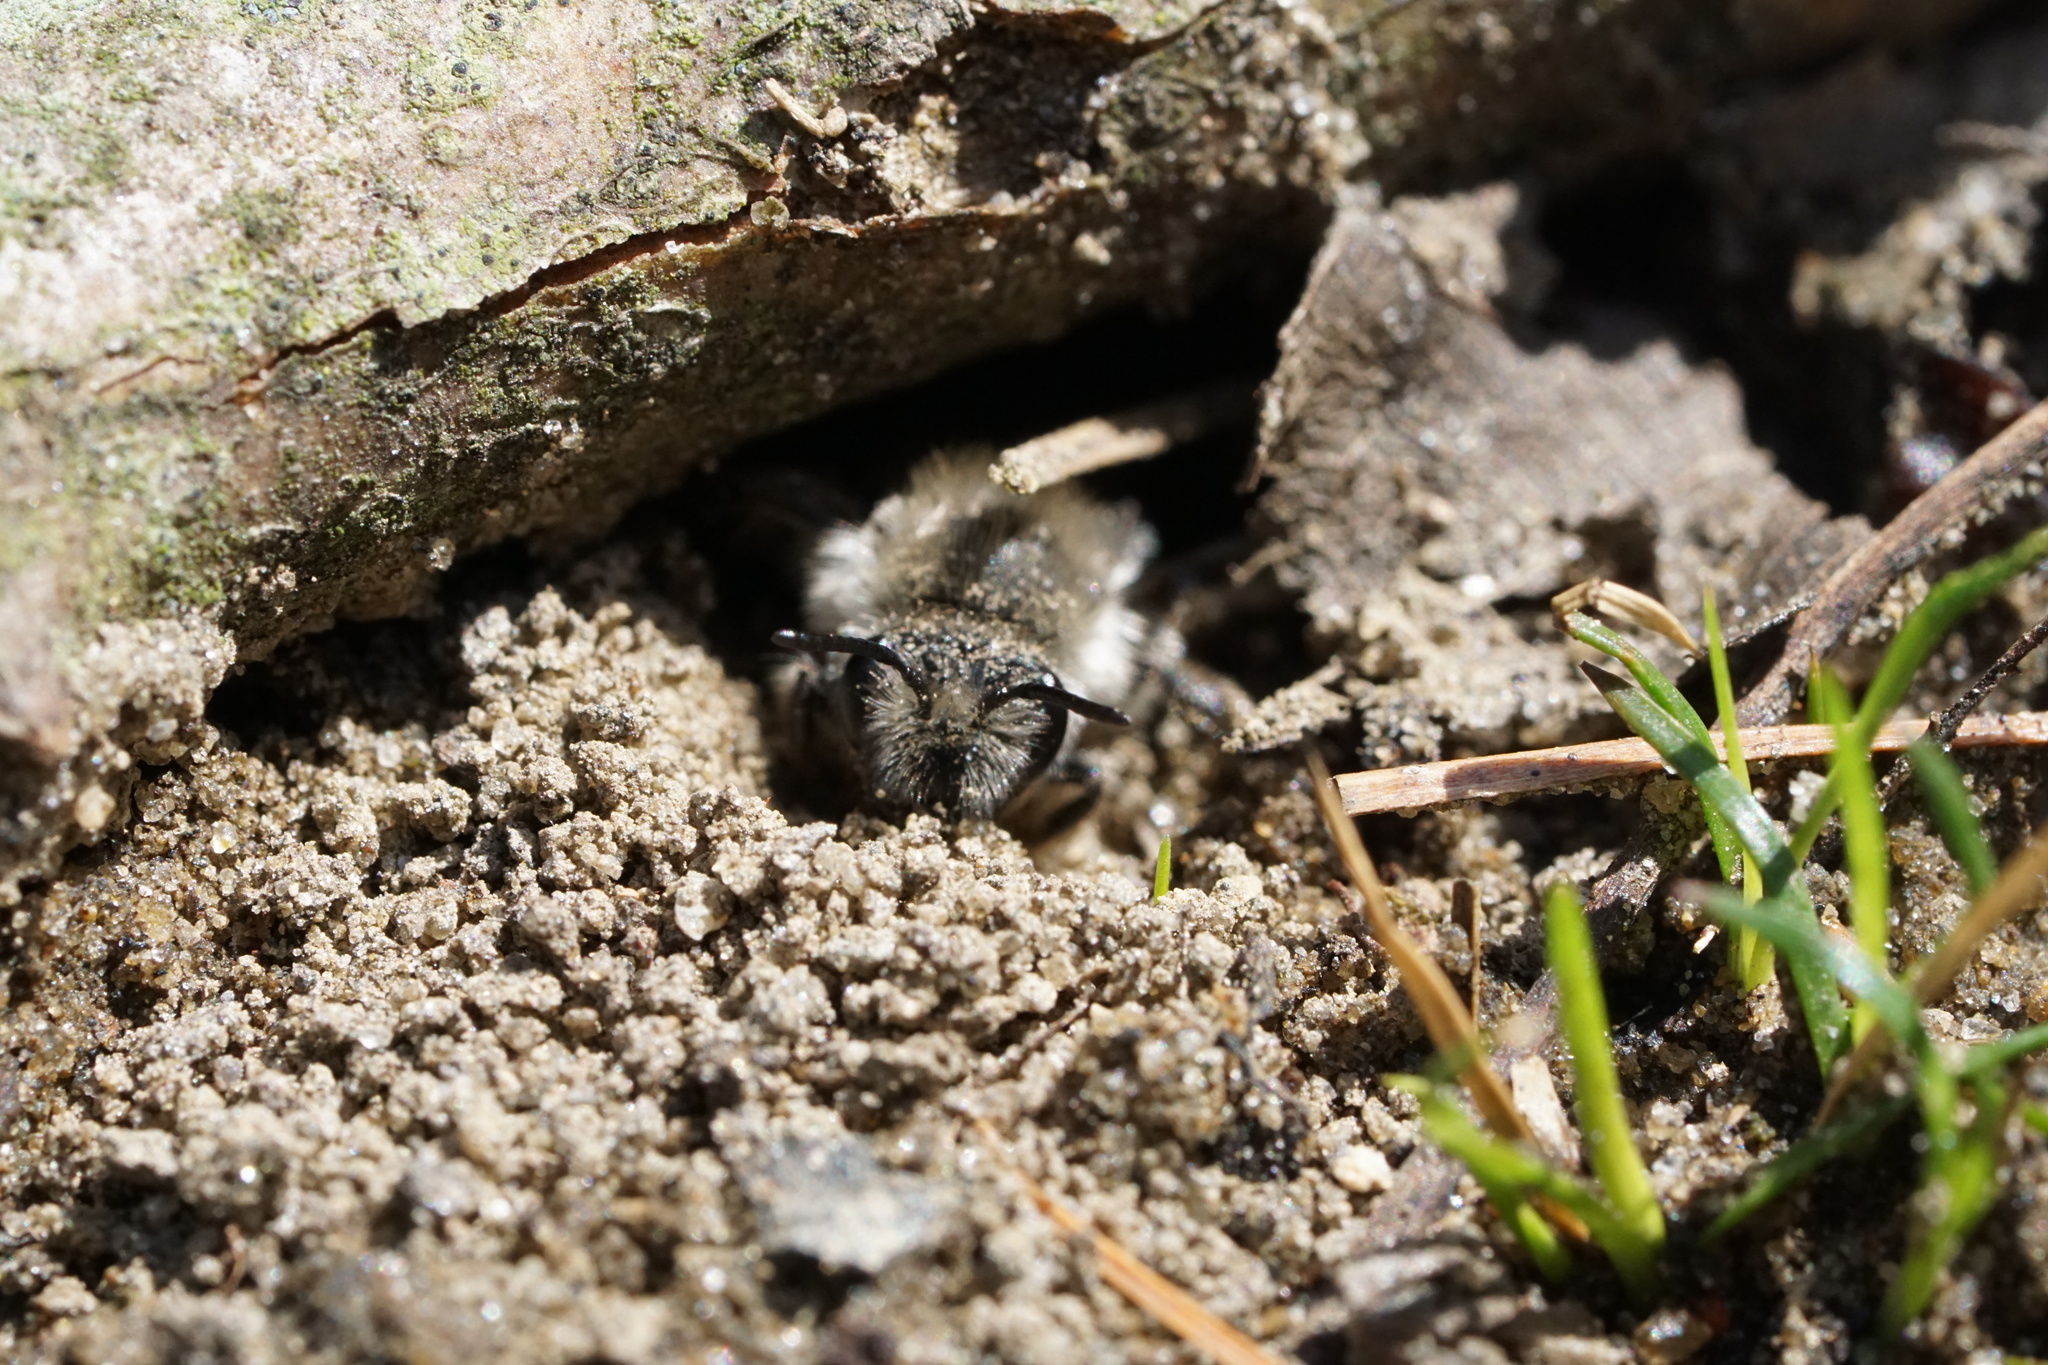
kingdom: Animalia
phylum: Arthropoda
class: Insecta
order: Hymenoptera
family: Colletidae
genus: Colletes
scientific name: Colletes inaequalis
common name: Unequal cellophane bee
